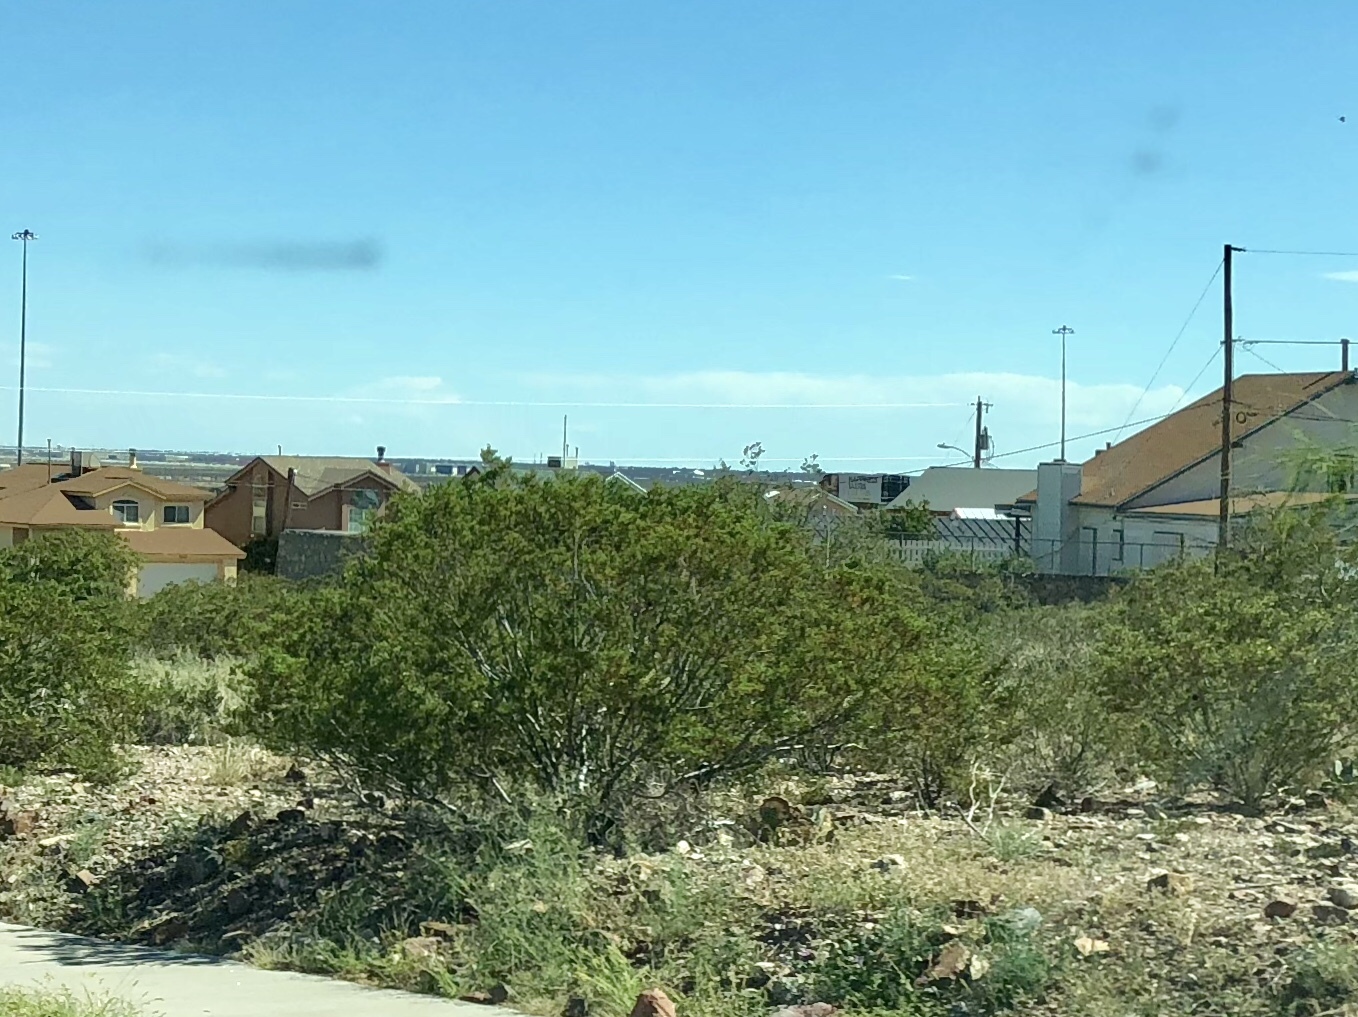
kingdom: Plantae
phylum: Tracheophyta
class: Magnoliopsida
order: Zygophyllales
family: Zygophyllaceae
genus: Larrea
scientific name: Larrea tridentata
